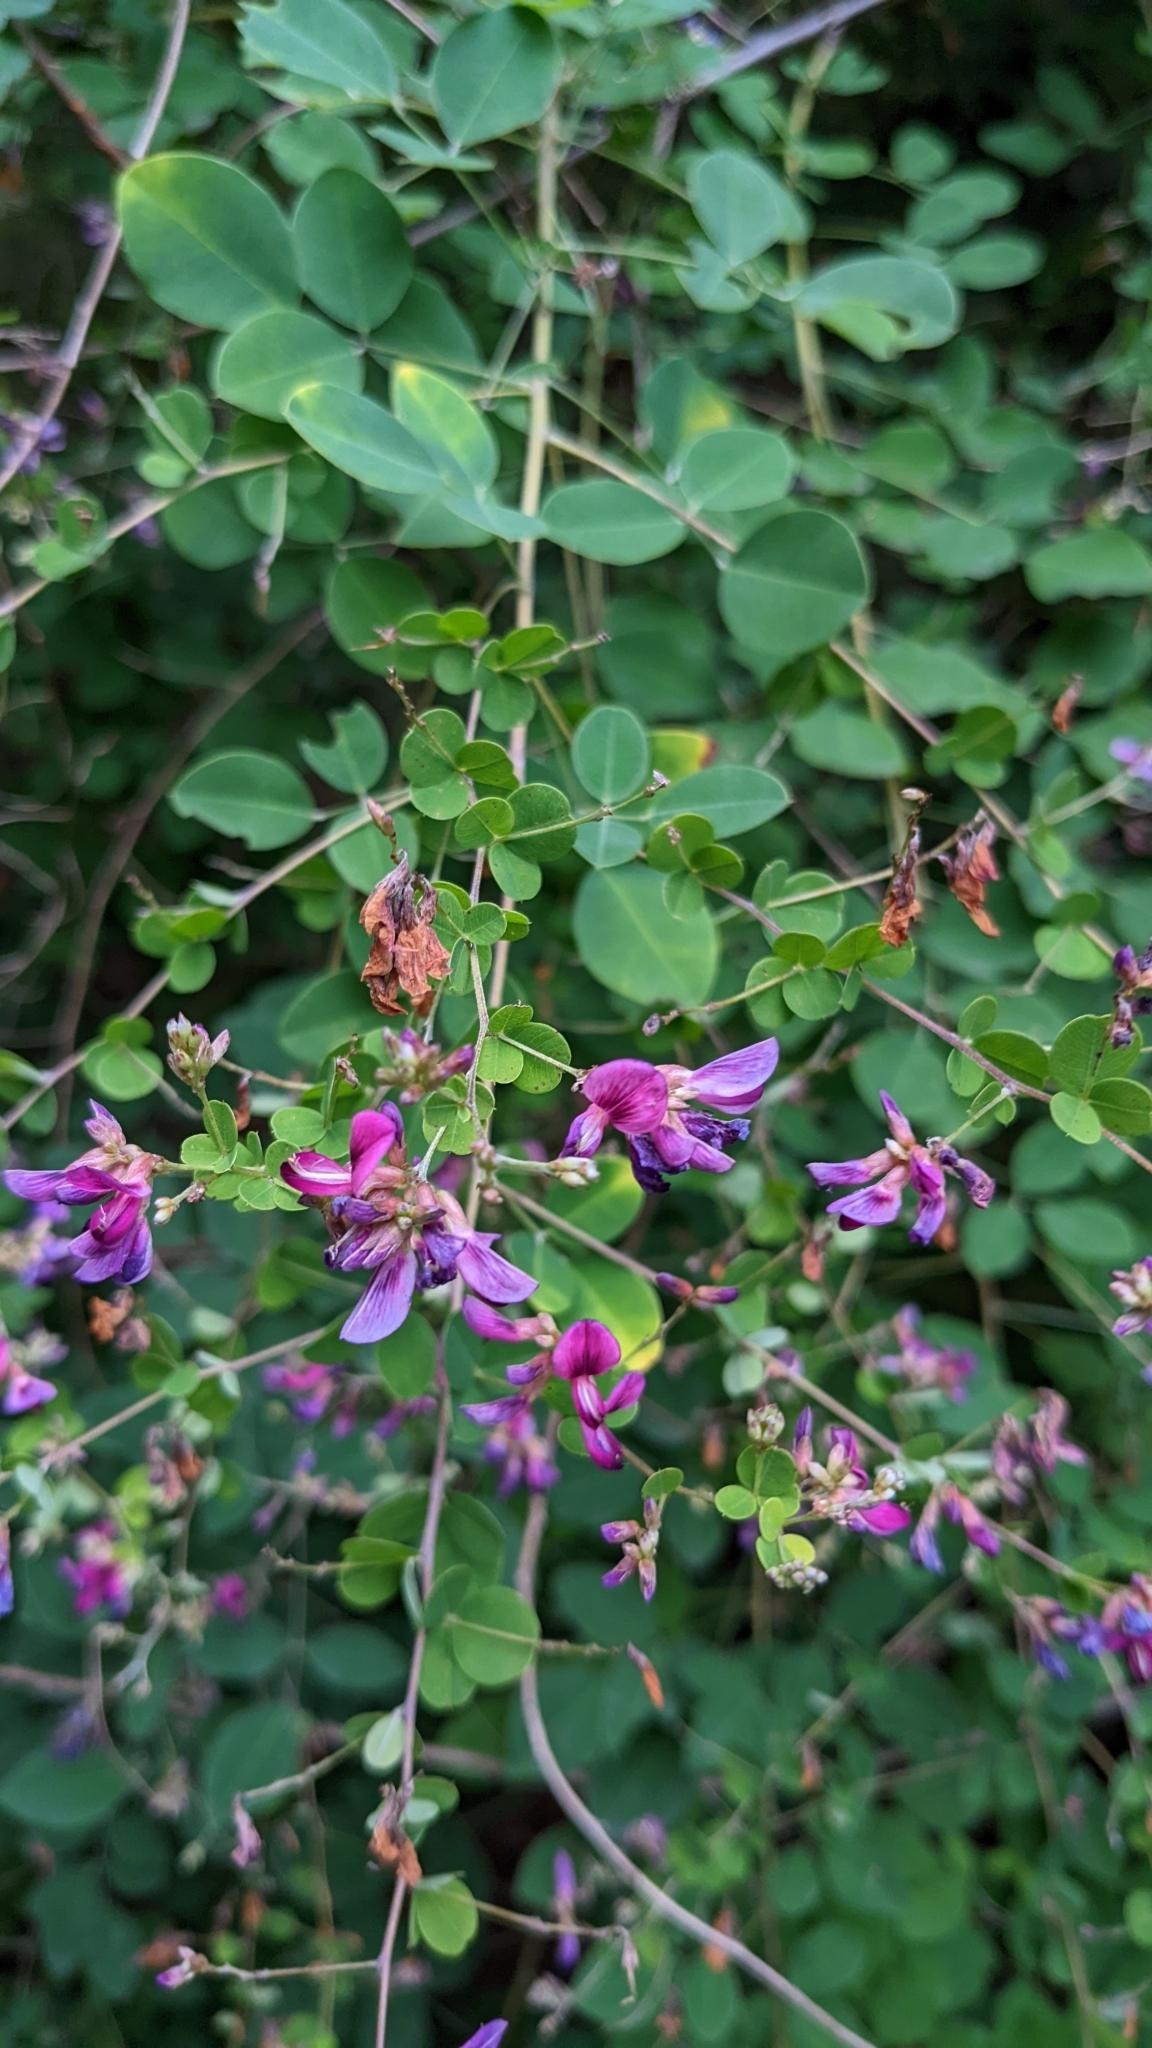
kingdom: Plantae
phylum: Tracheophyta
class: Magnoliopsida
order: Fabales
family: Fabaceae
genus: Lespedeza
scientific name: Lespedeza bicolor
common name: Shrub lespedeza
